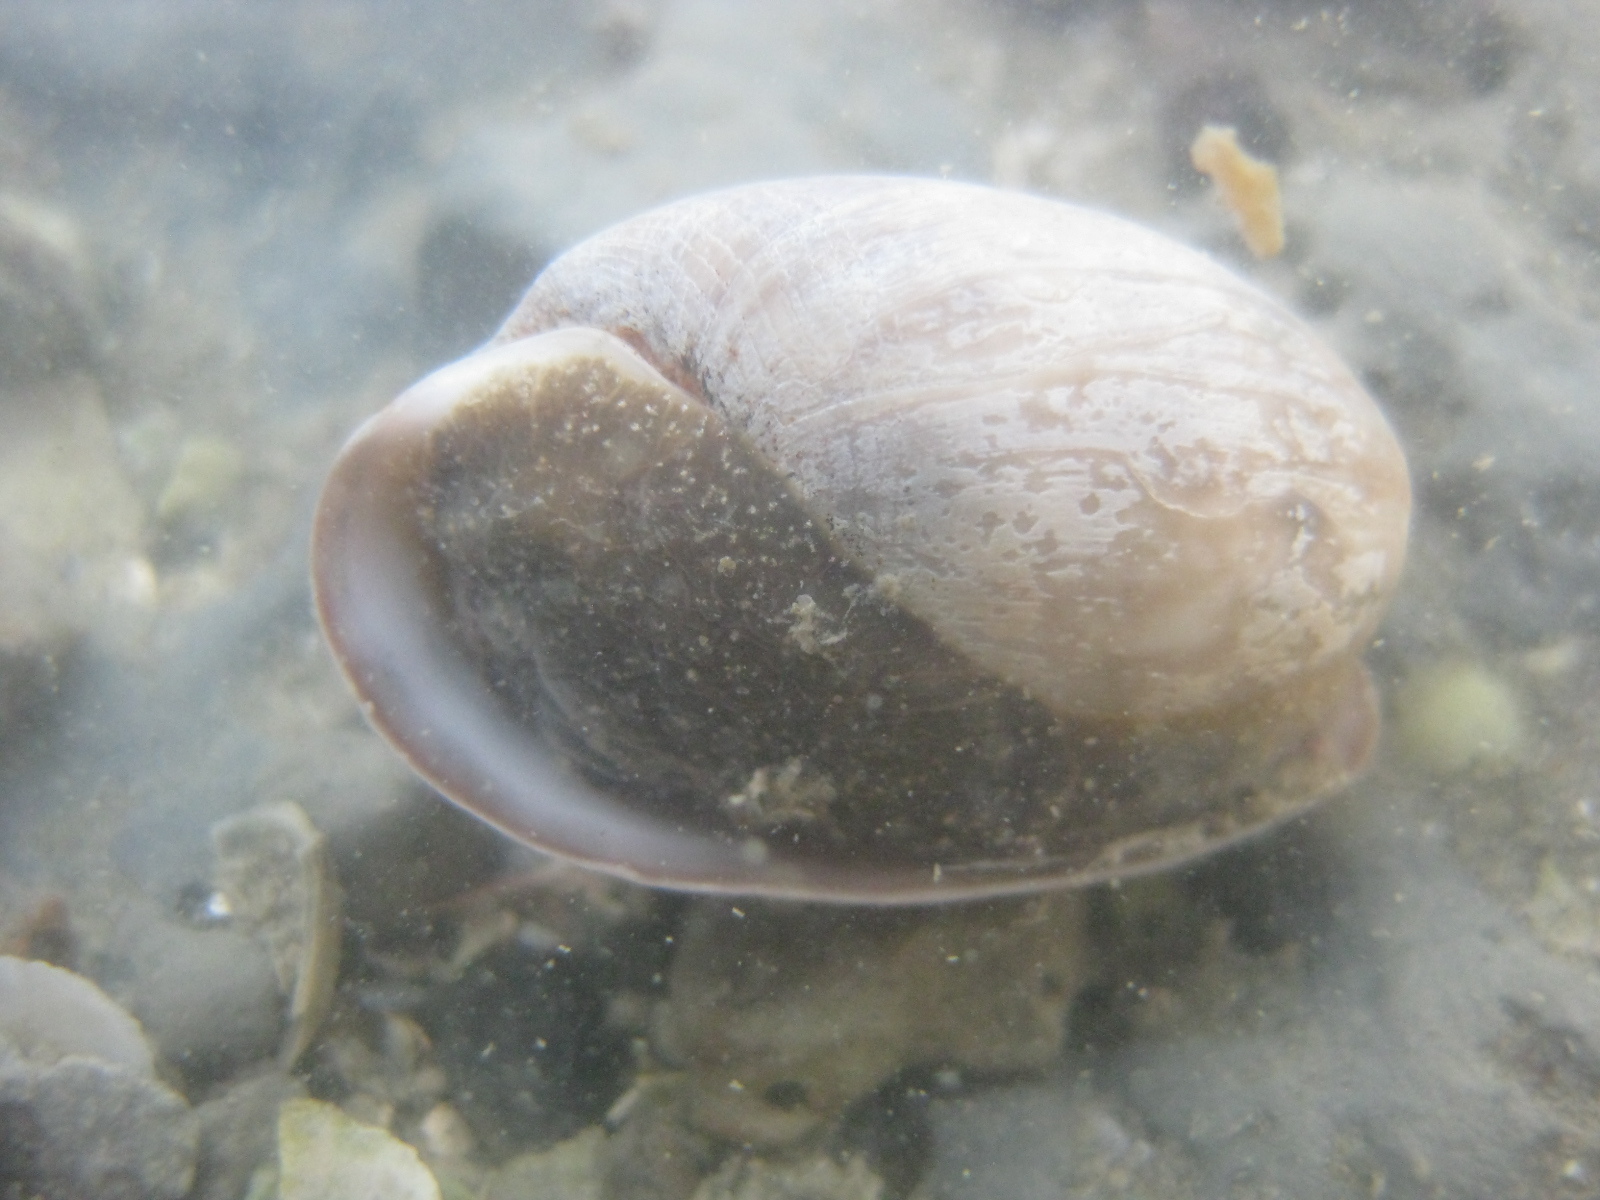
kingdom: Animalia
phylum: Mollusca
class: Gastropoda
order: Cephalaspidea
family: Bullidae
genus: Bulla
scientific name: Bulla quoyii
